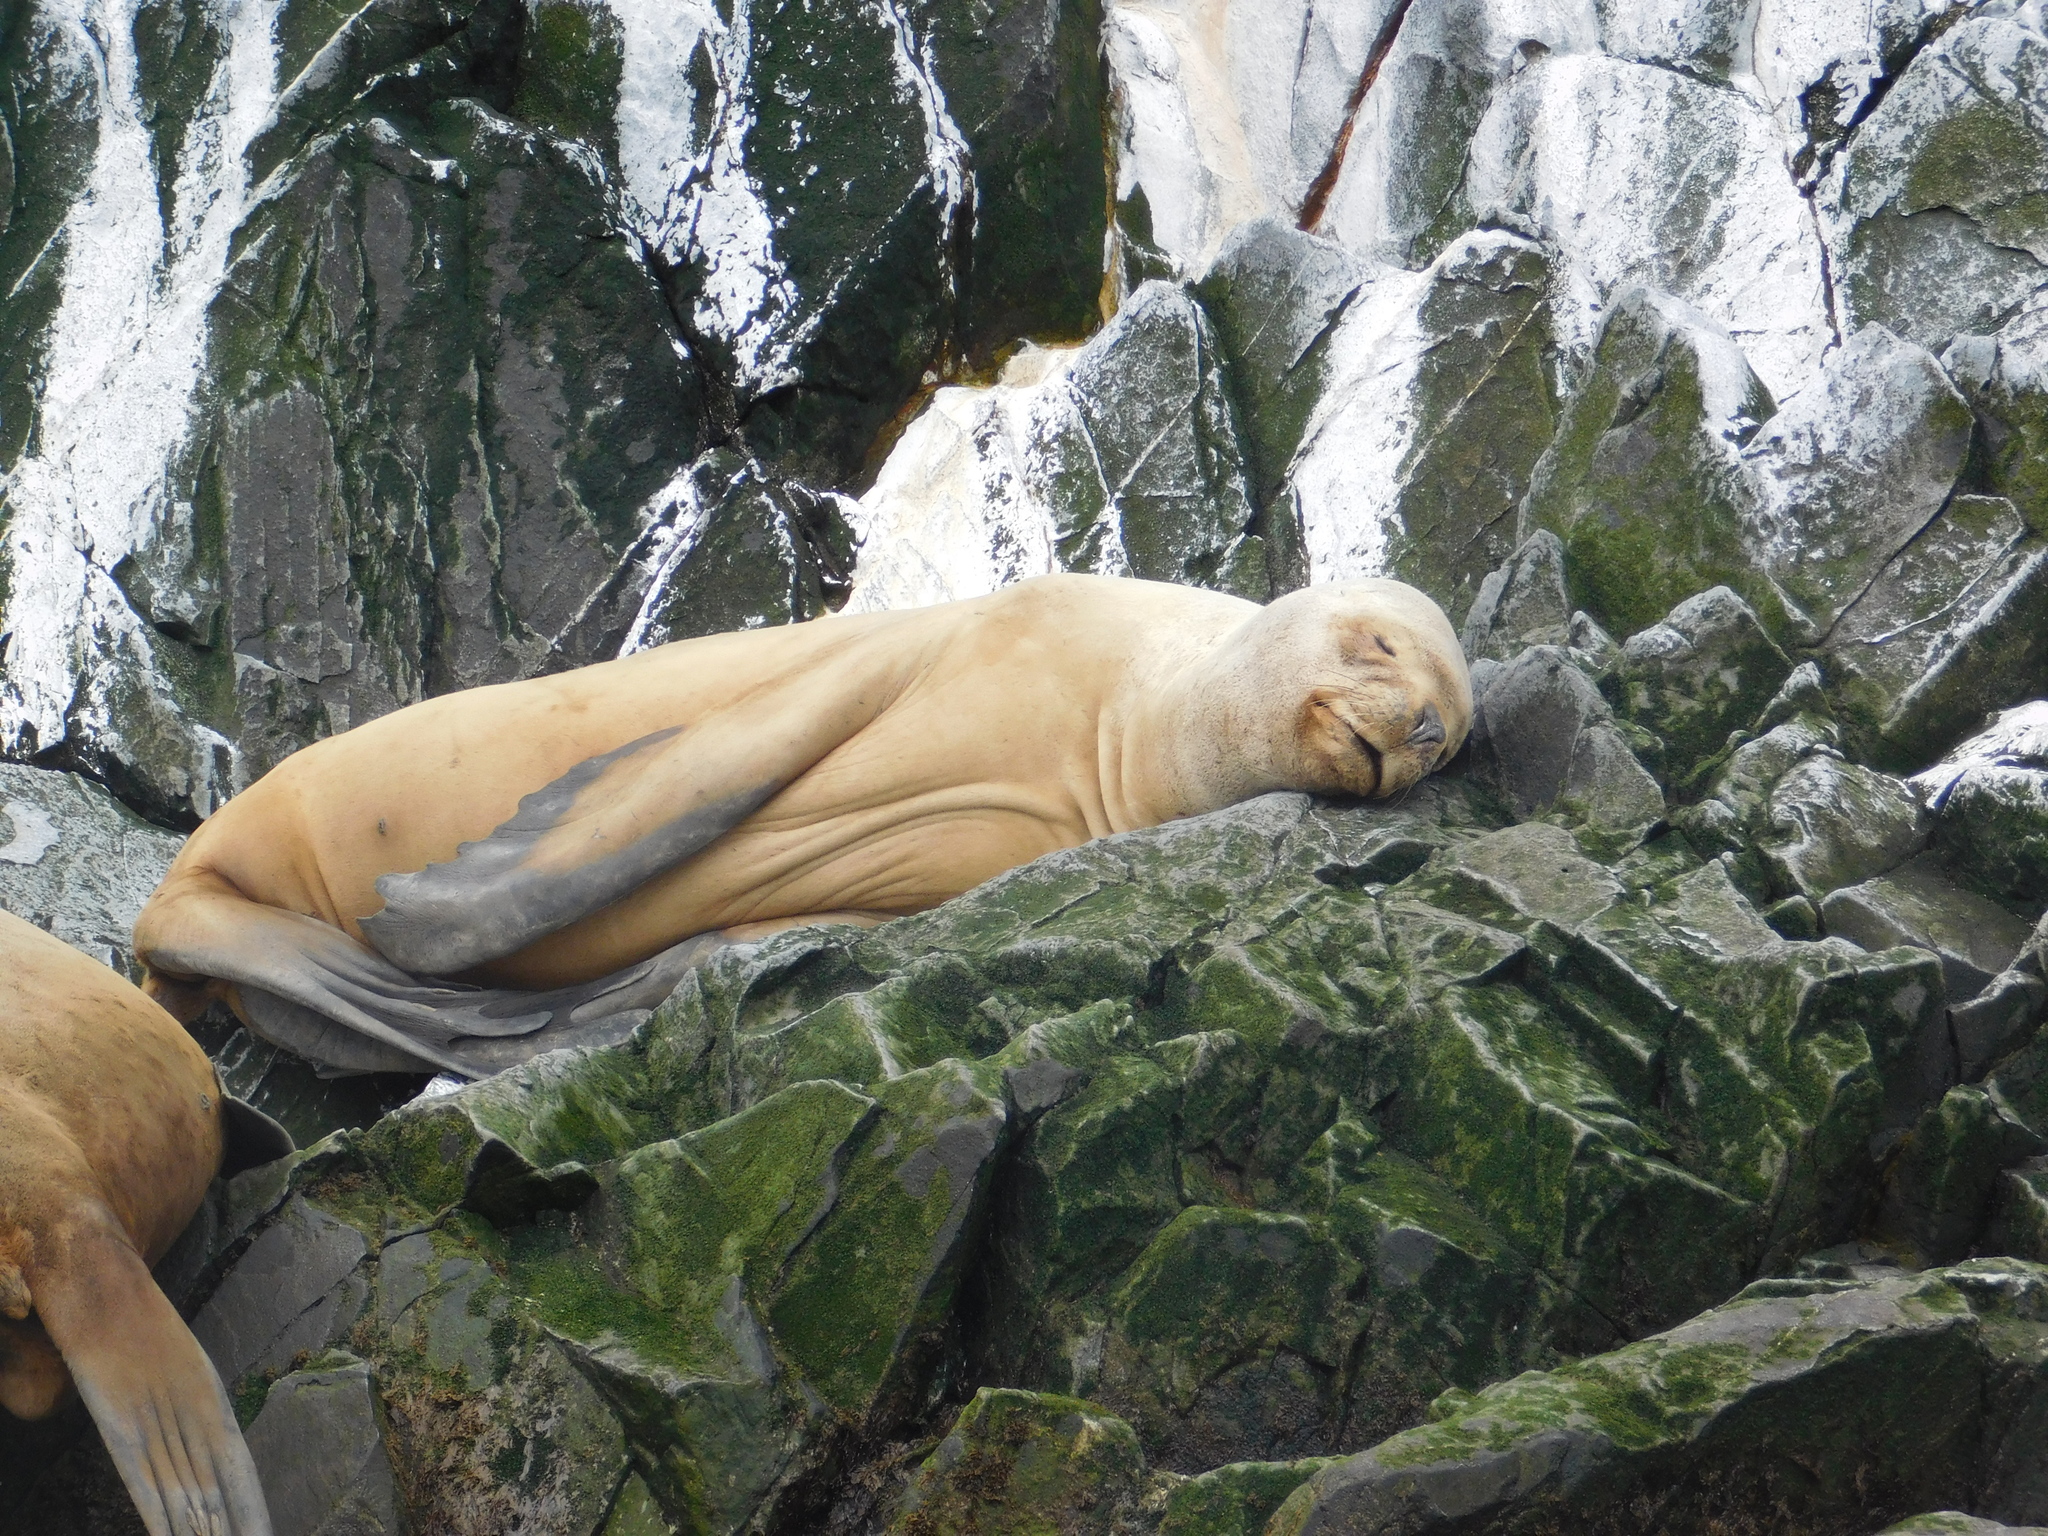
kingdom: Animalia
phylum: Chordata
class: Mammalia
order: Carnivora
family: Otariidae
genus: Otaria
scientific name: Otaria byronia
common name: South american sea lion
